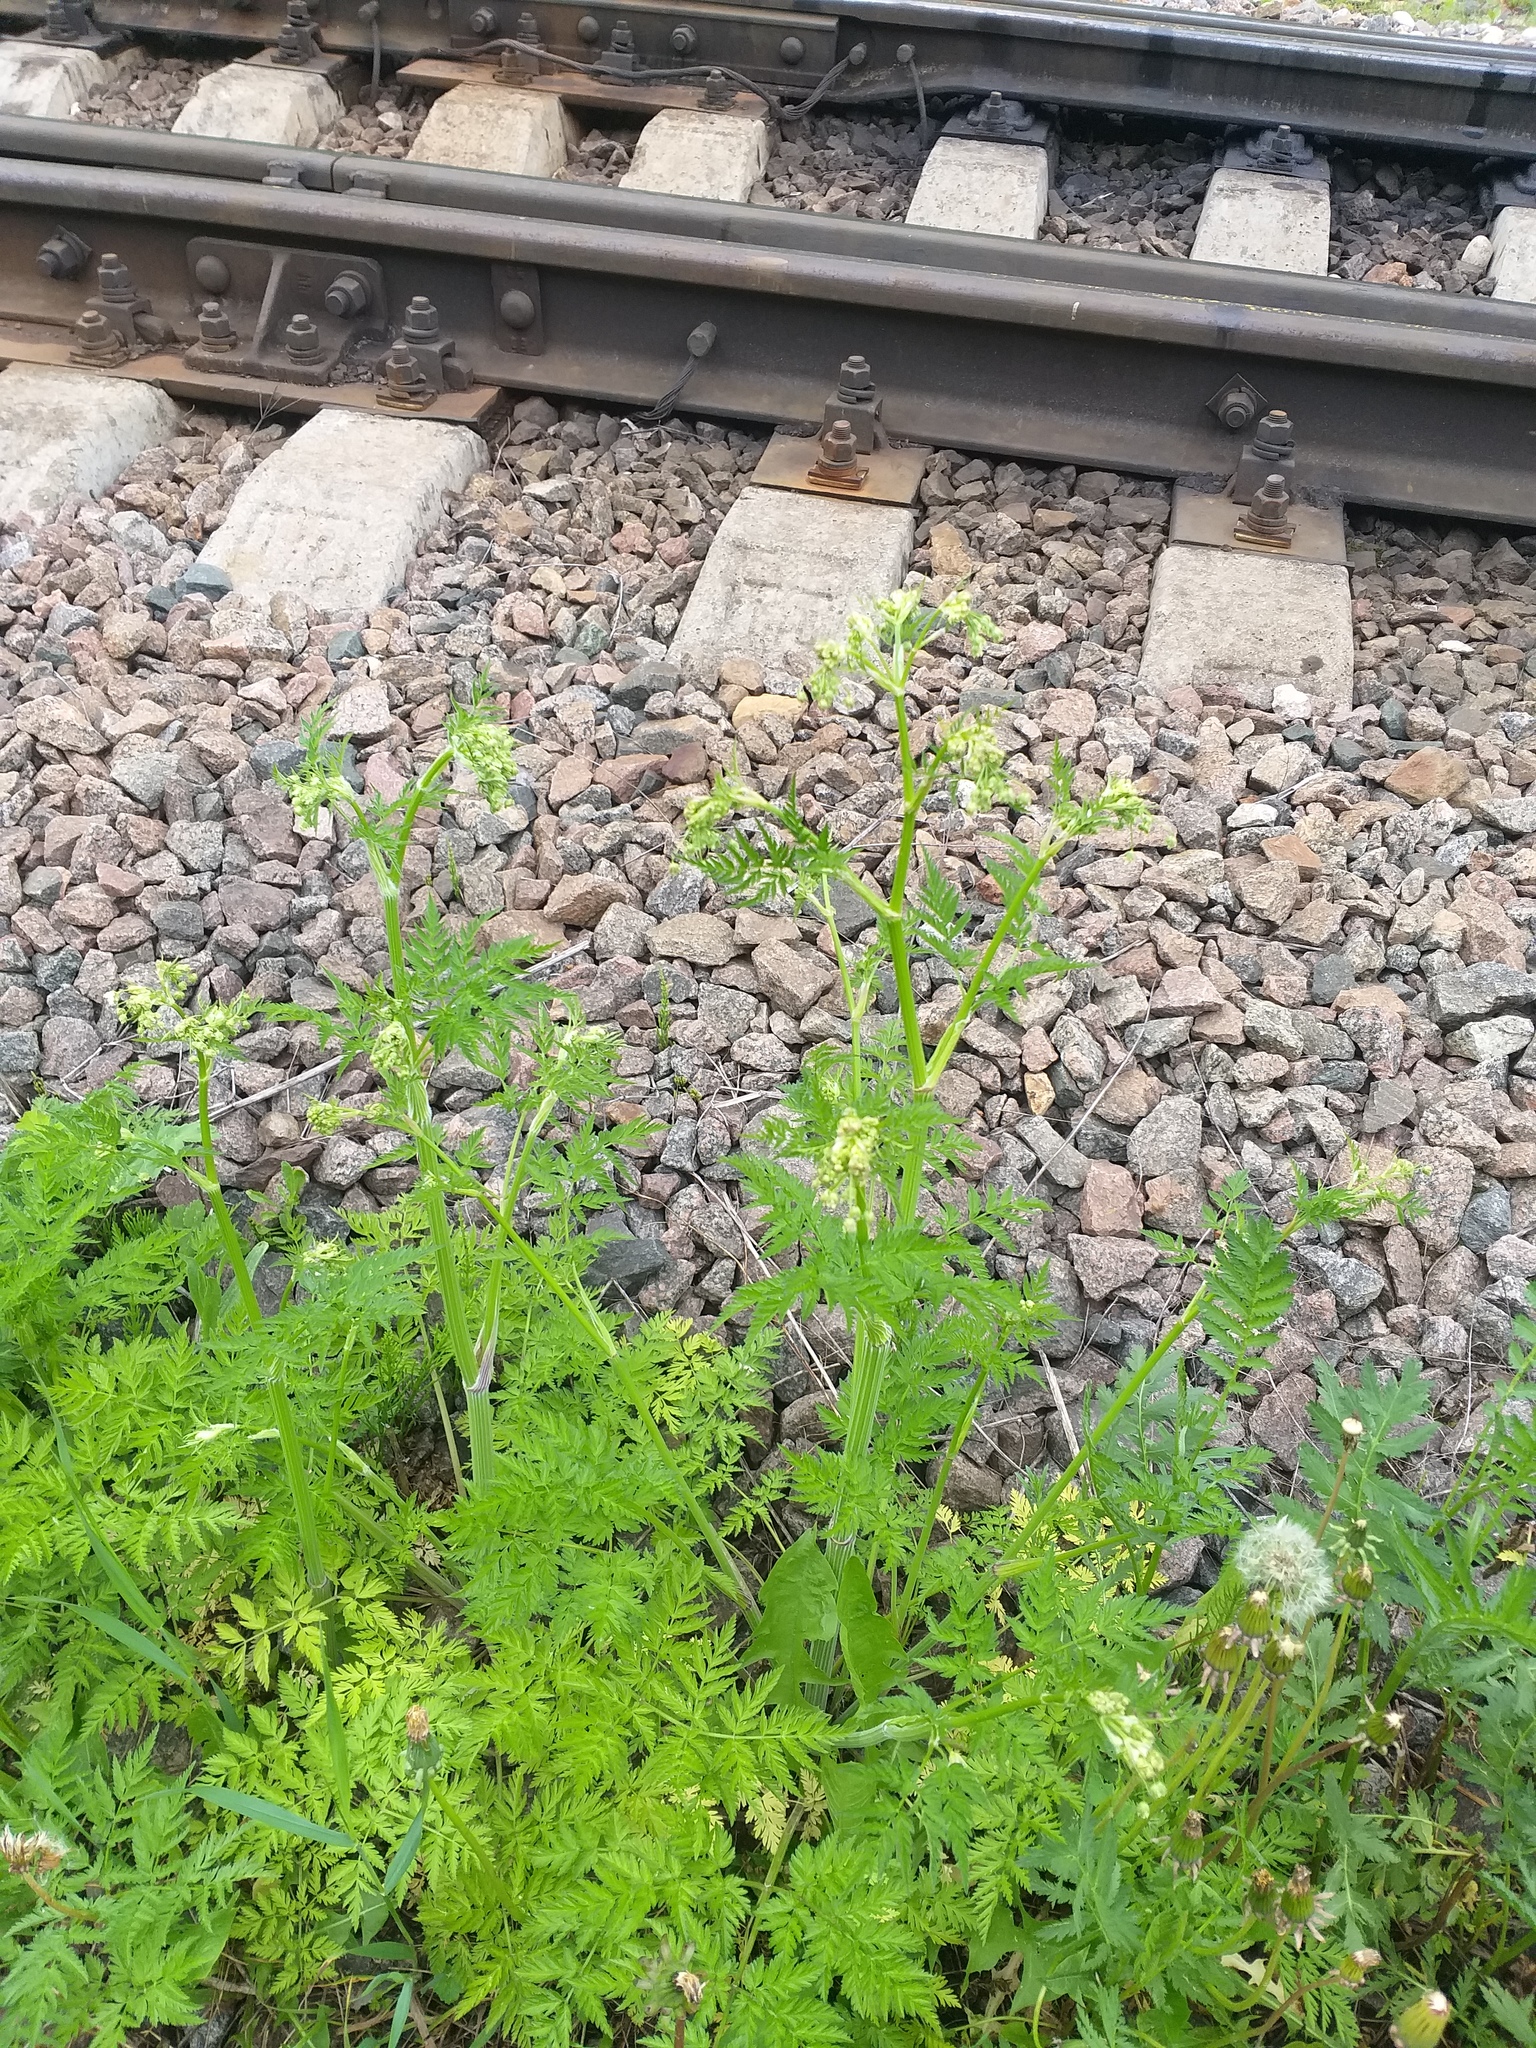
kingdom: Plantae
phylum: Tracheophyta
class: Magnoliopsida
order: Apiales
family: Apiaceae
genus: Anthriscus
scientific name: Anthriscus sylvestris
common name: Cow parsley
